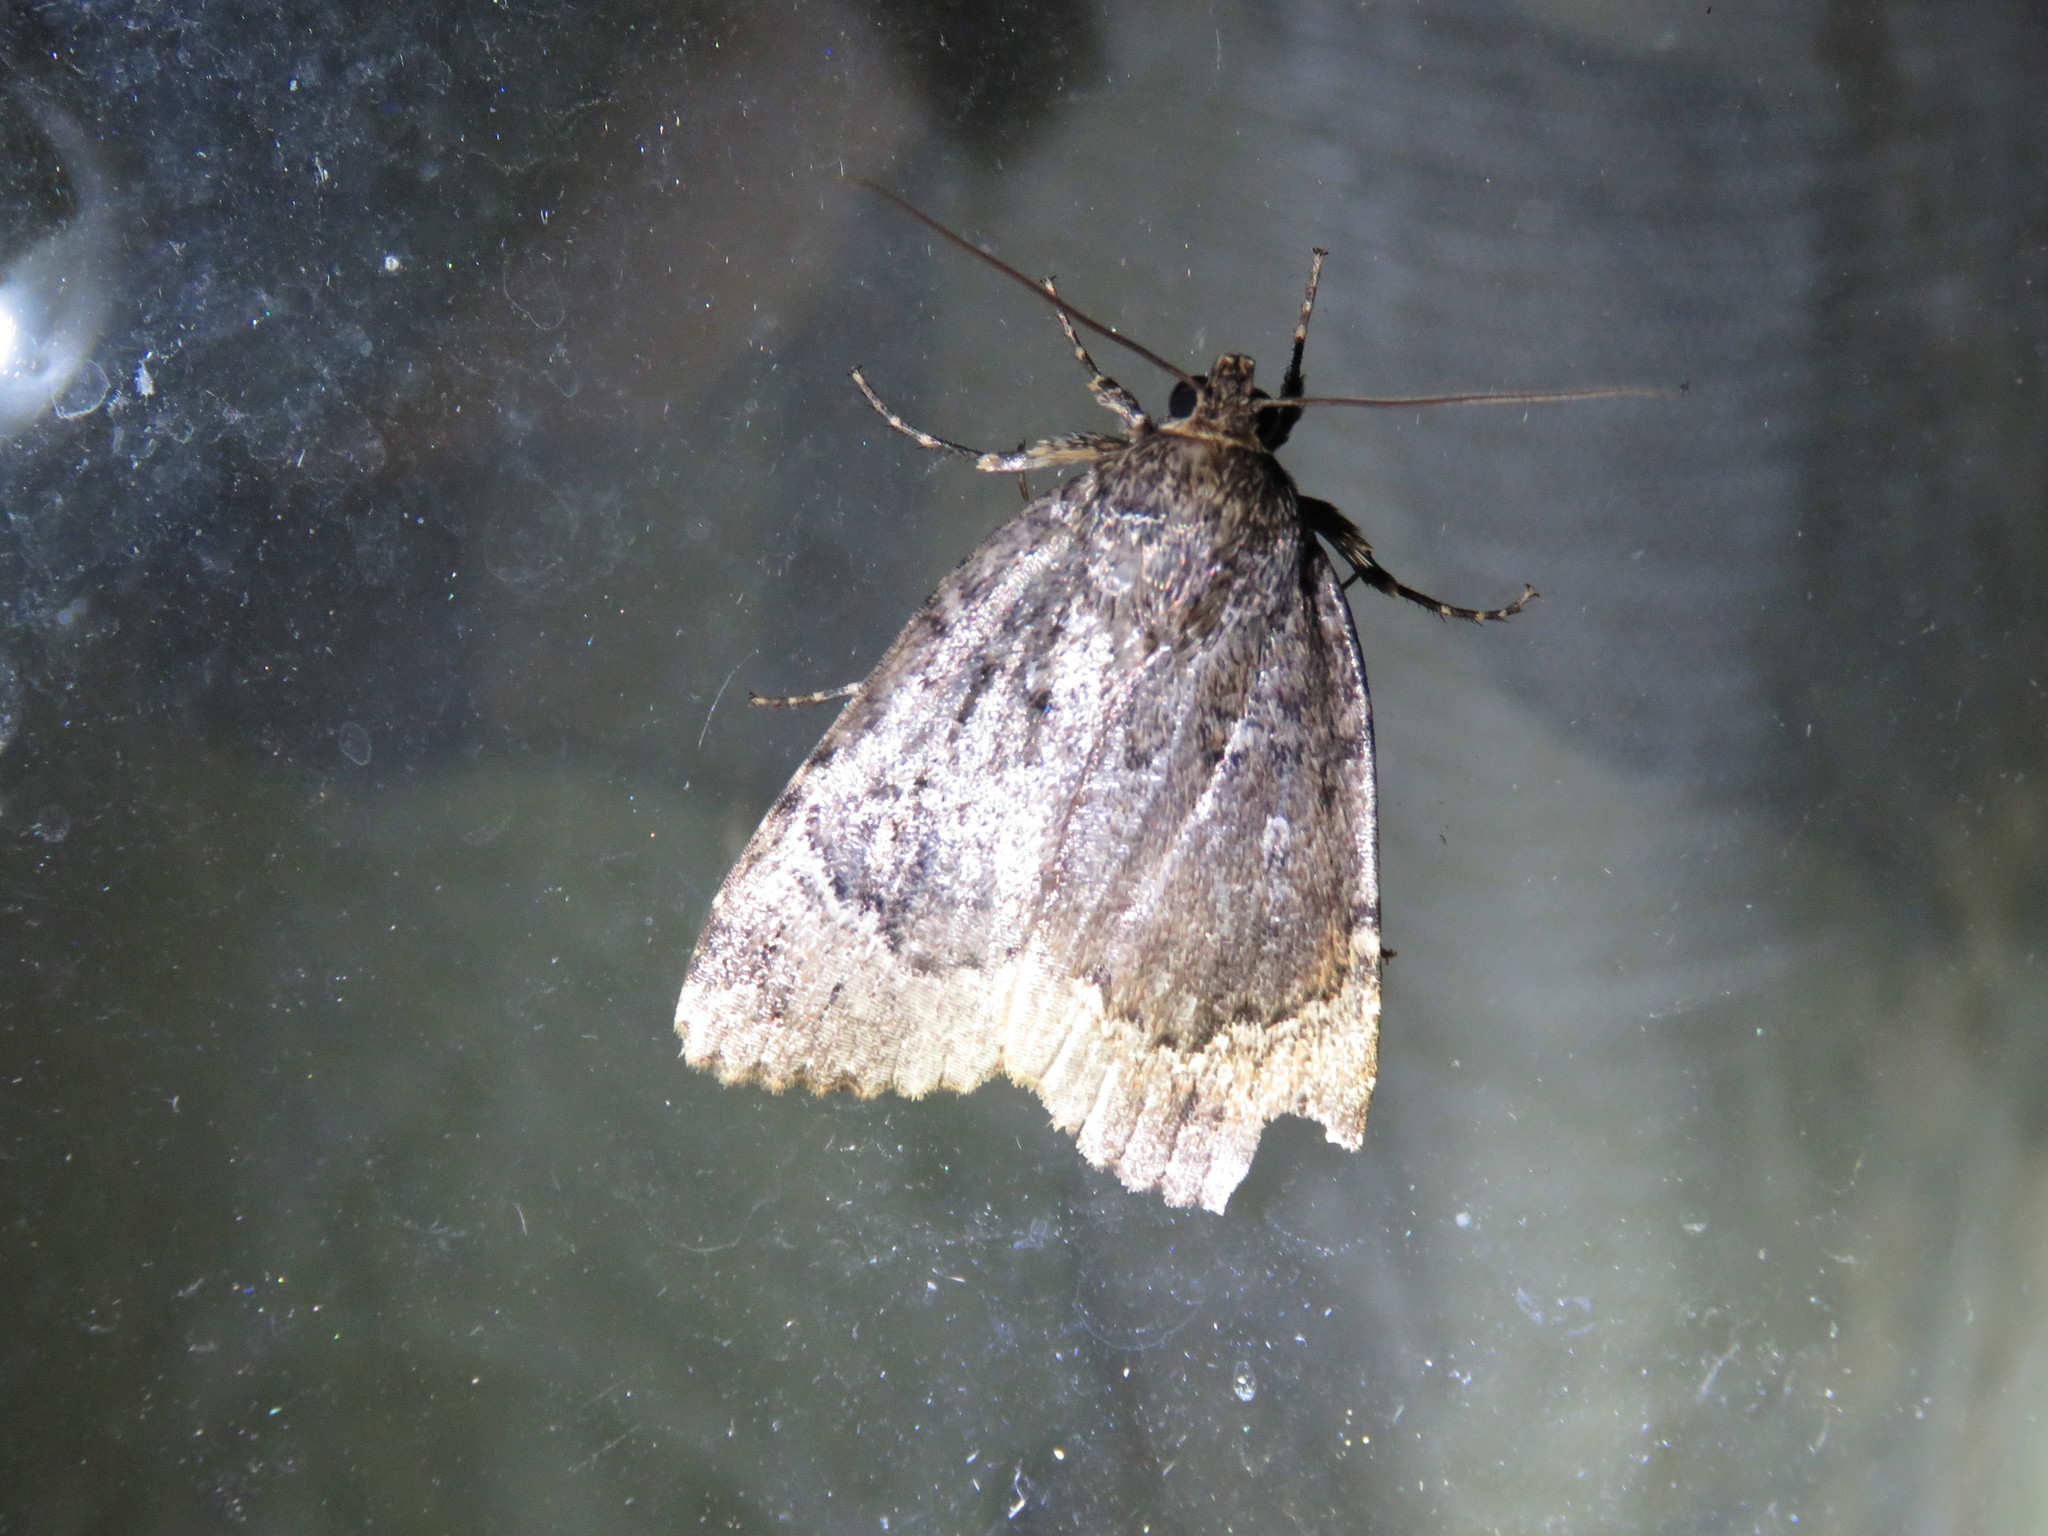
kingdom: Animalia
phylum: Arthropoda
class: Insecta
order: Lepidoptera
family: Noctuidae
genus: Amphipyra
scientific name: Amphipyra pyramidoides
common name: American copper underwing
